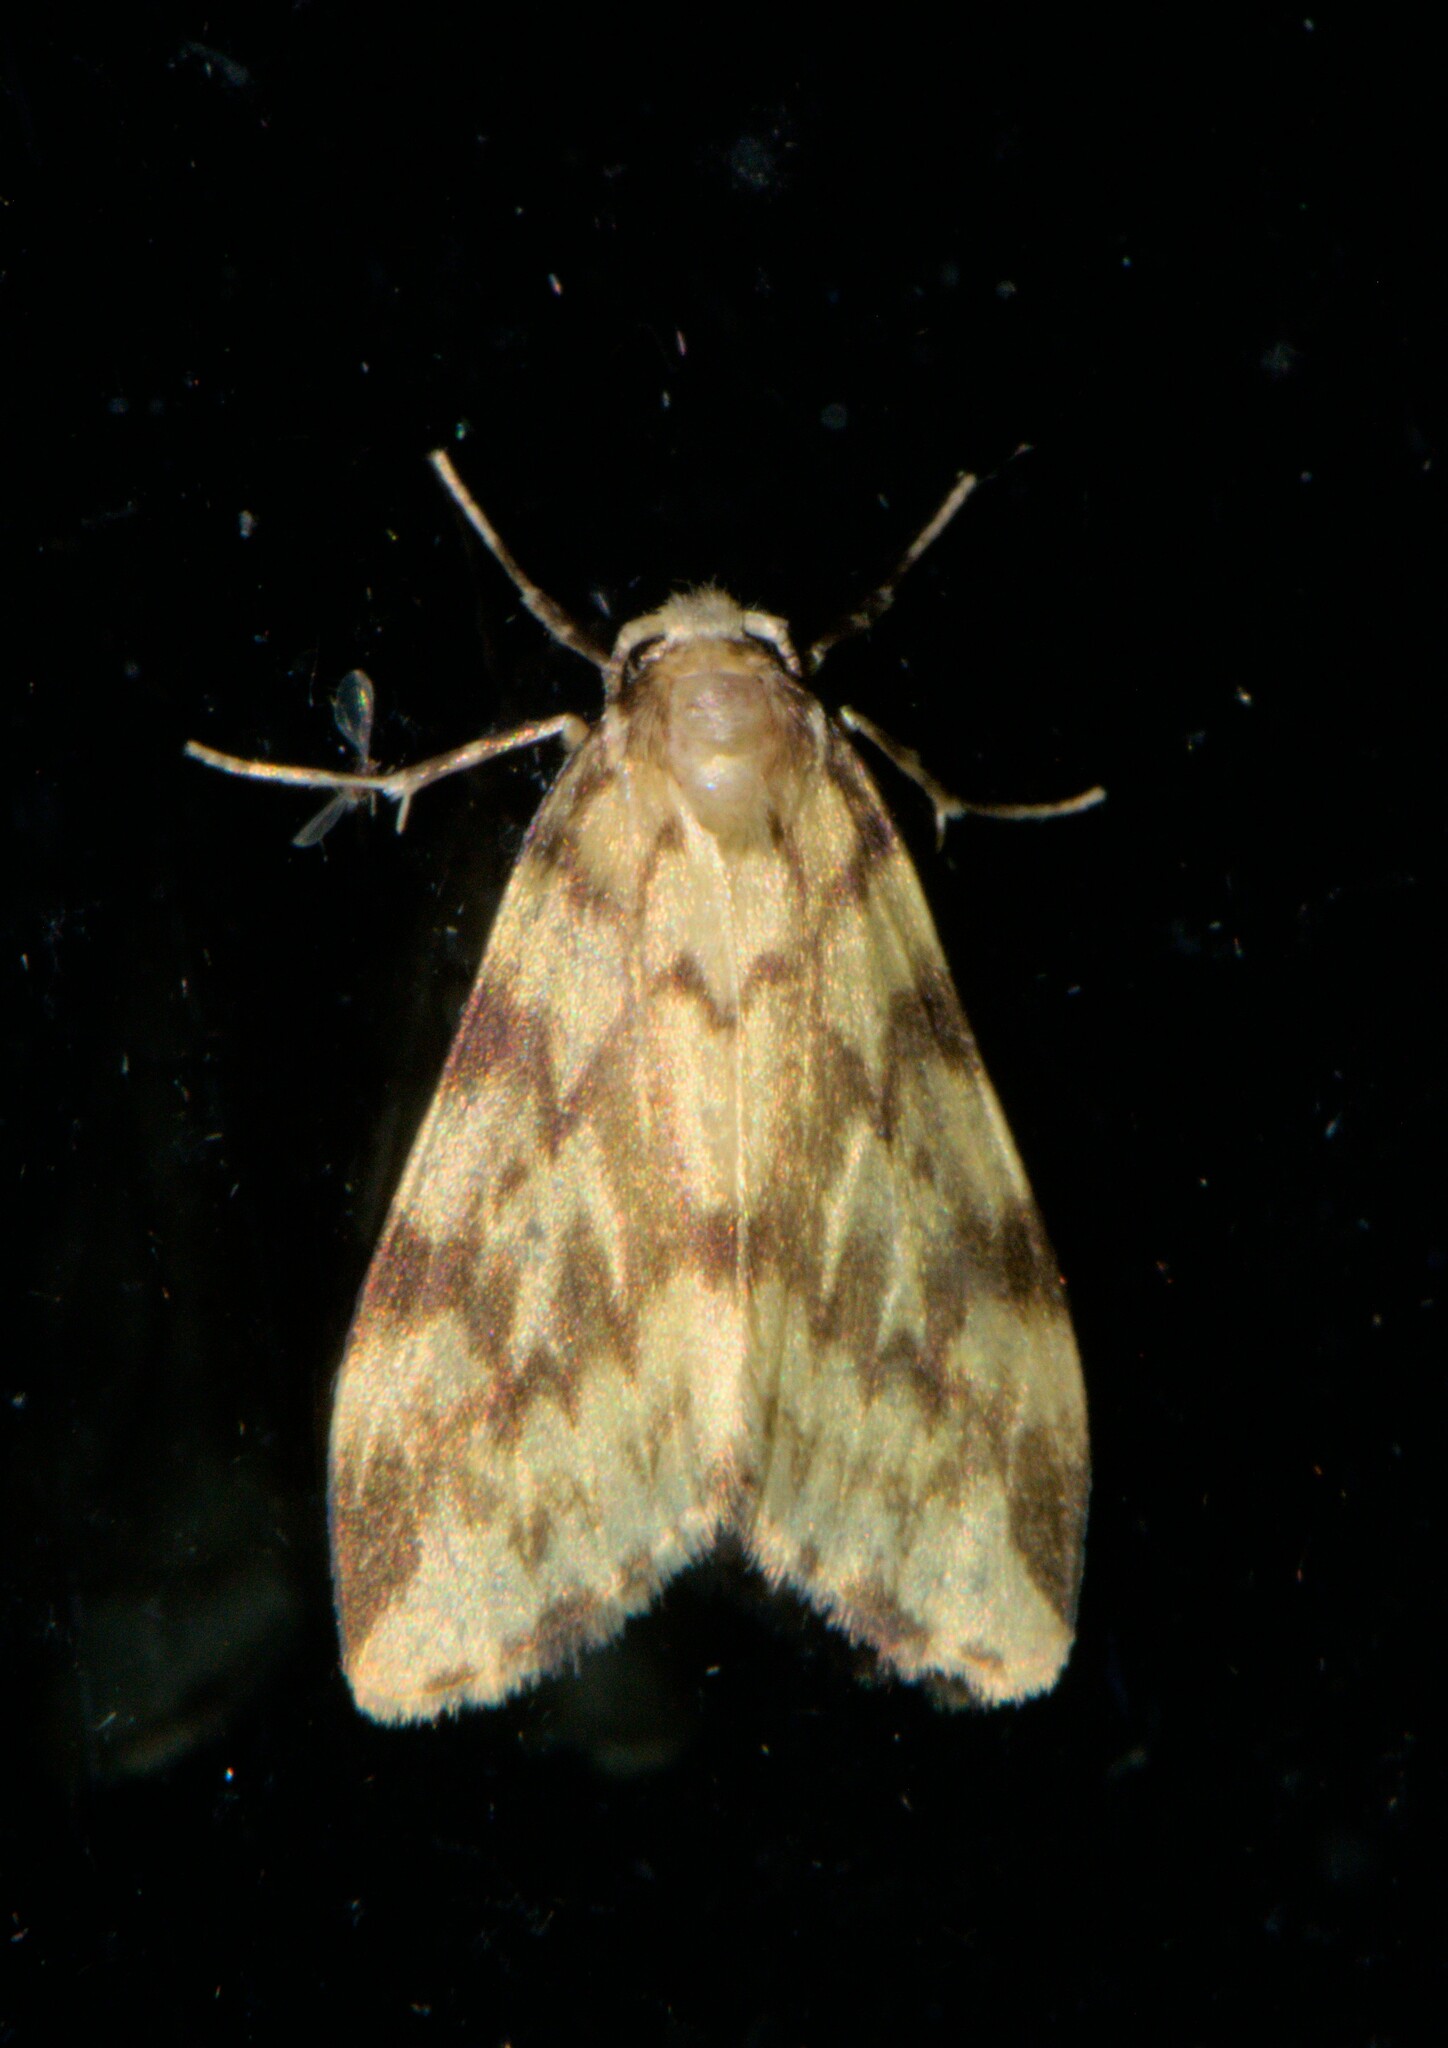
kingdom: Animalia
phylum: Arthropoda
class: Insecta
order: Lepidoptera
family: Erebidae
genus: Nudaria
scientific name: Nudaria margaritacea
